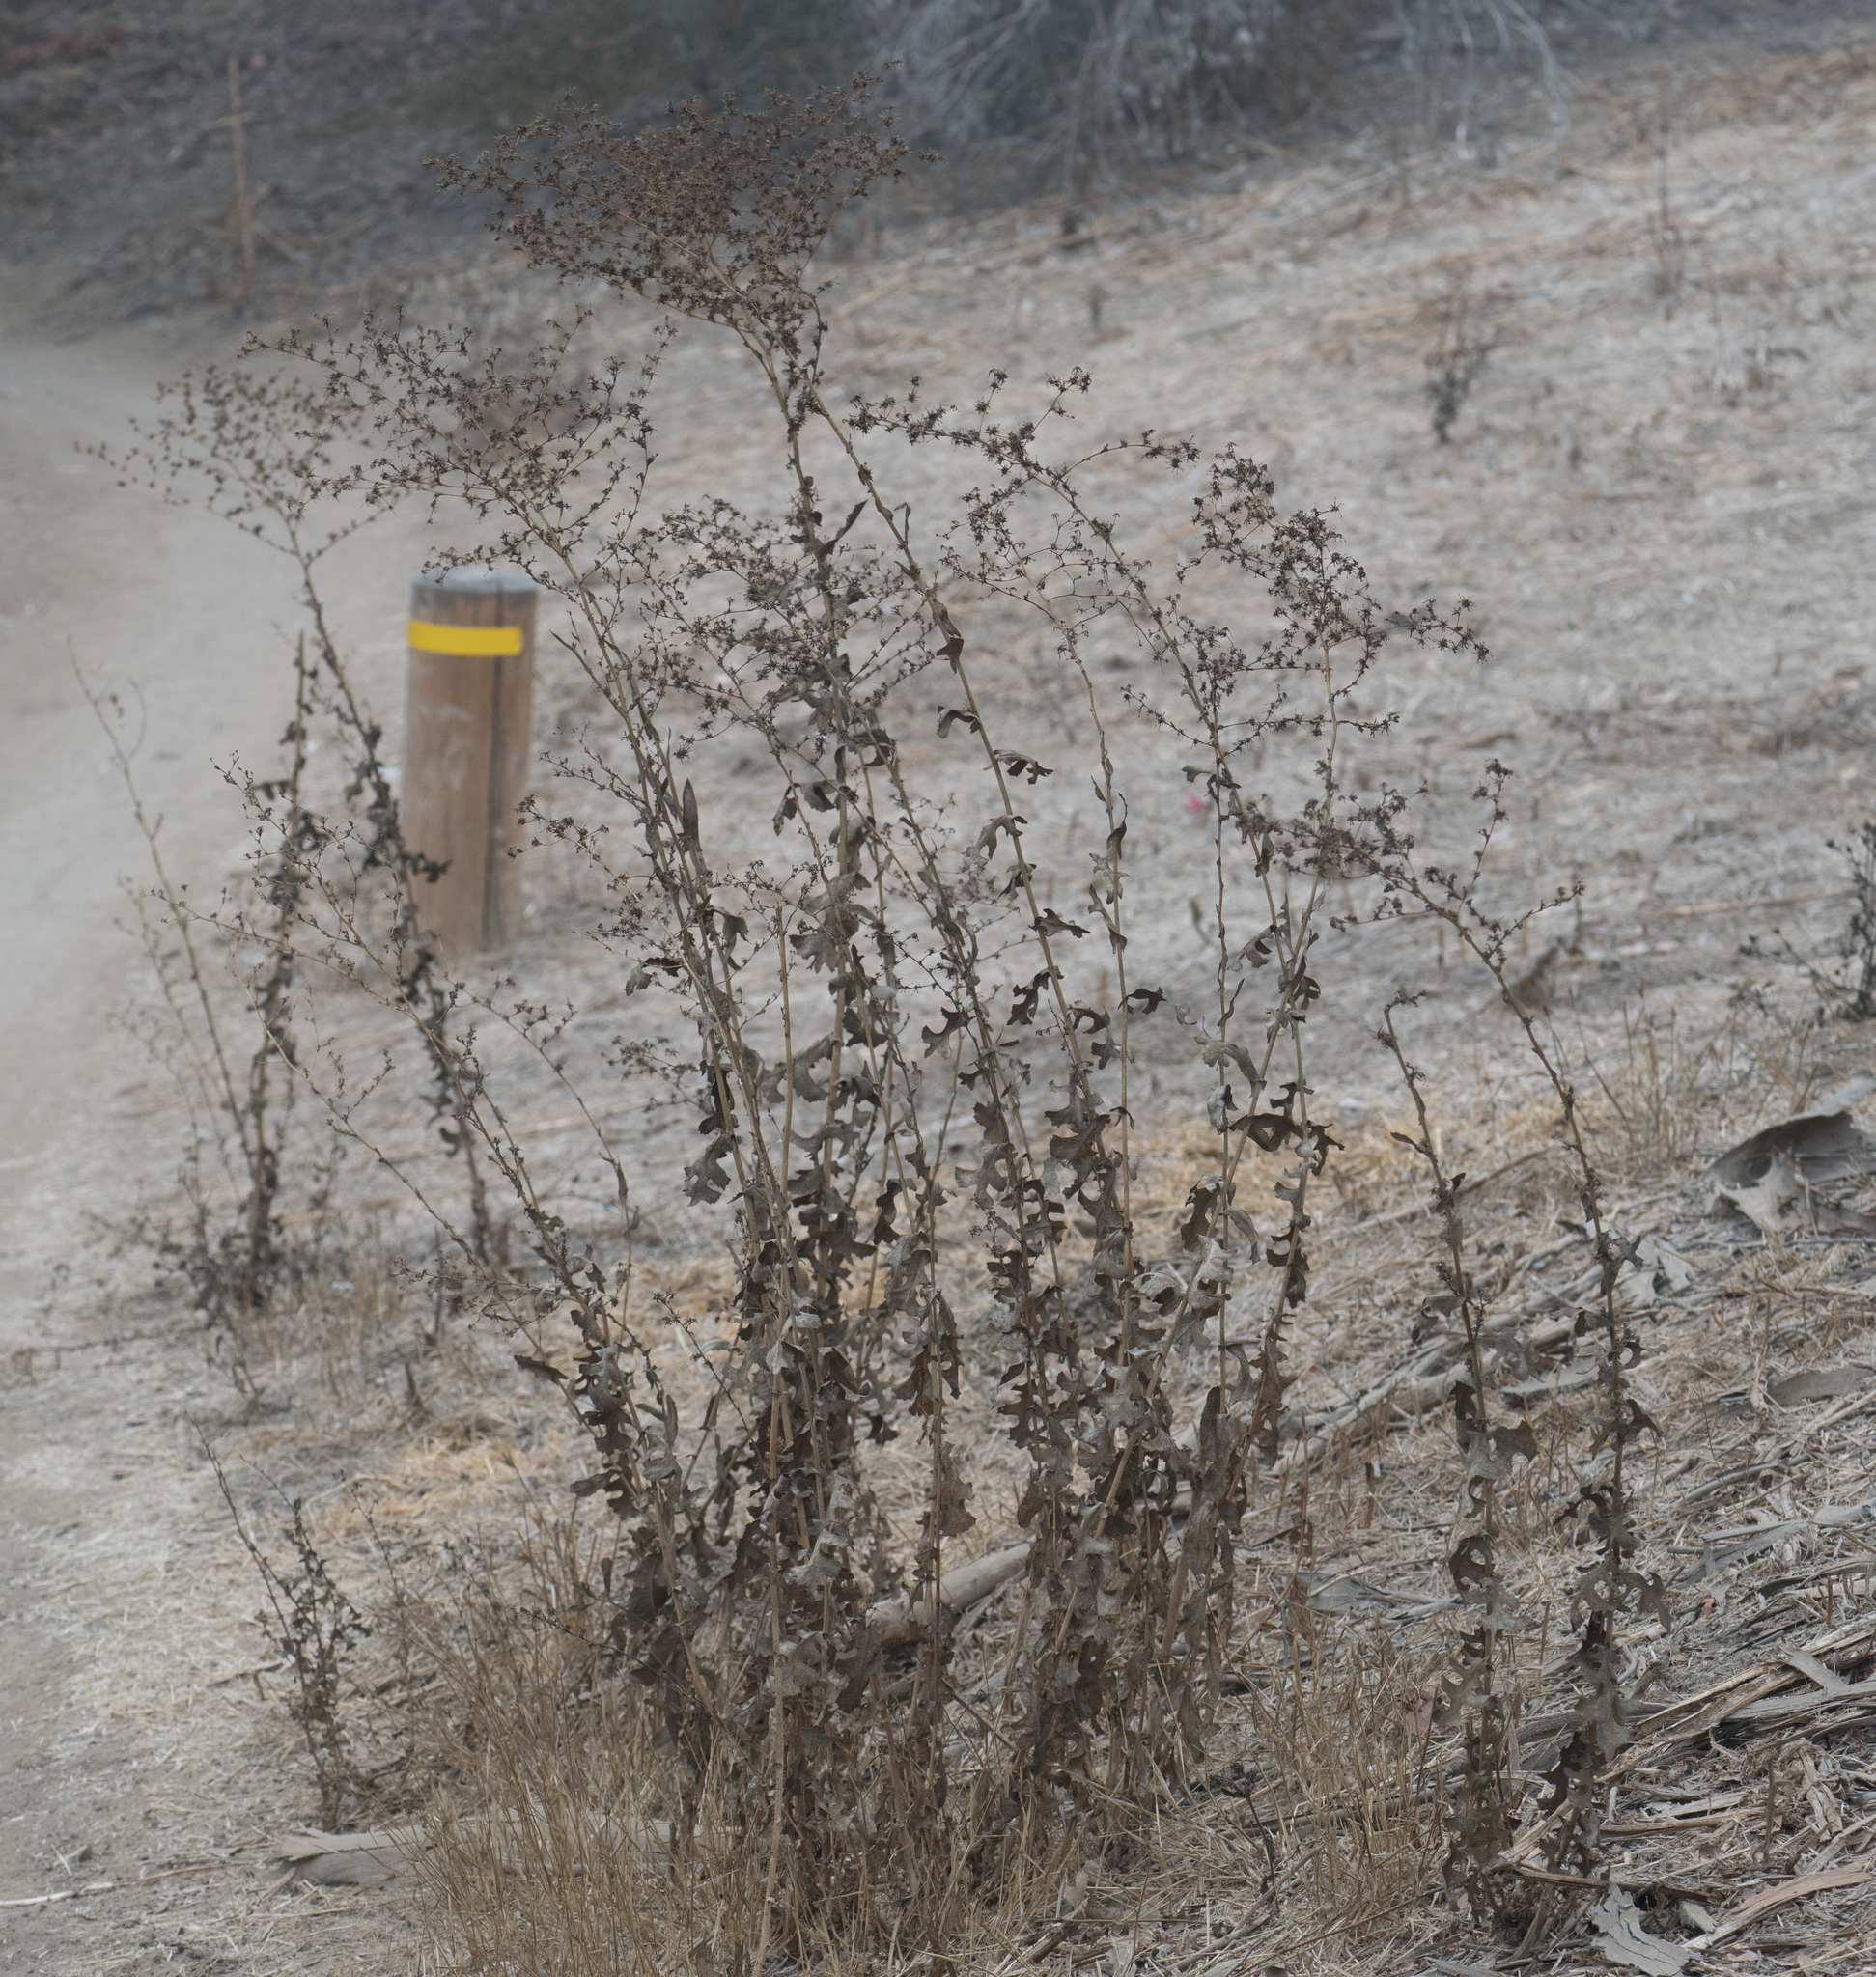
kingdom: Plantae
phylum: Tracheophyta
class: Magnoliopsida
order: Asterales
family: Asteraceae
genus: Lactuca
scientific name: Lactuca serriola
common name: Prickly lettuce
